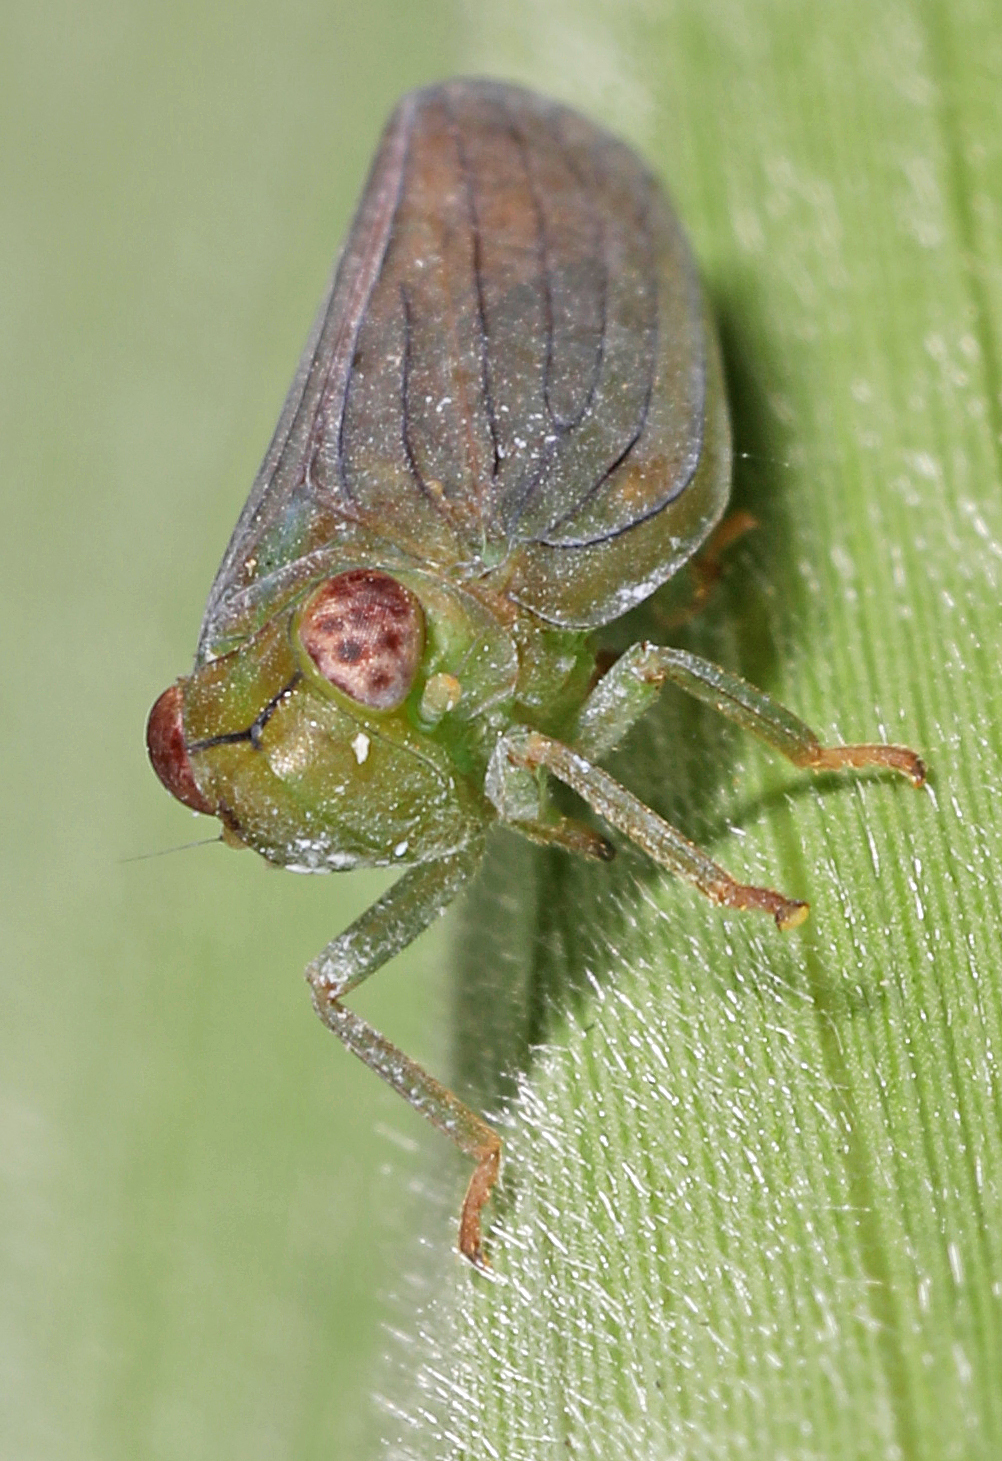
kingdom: Animalia
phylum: Arthropoda
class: Insecta
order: Hemiptera
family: Issidae
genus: Aplos
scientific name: Aplos simplex
